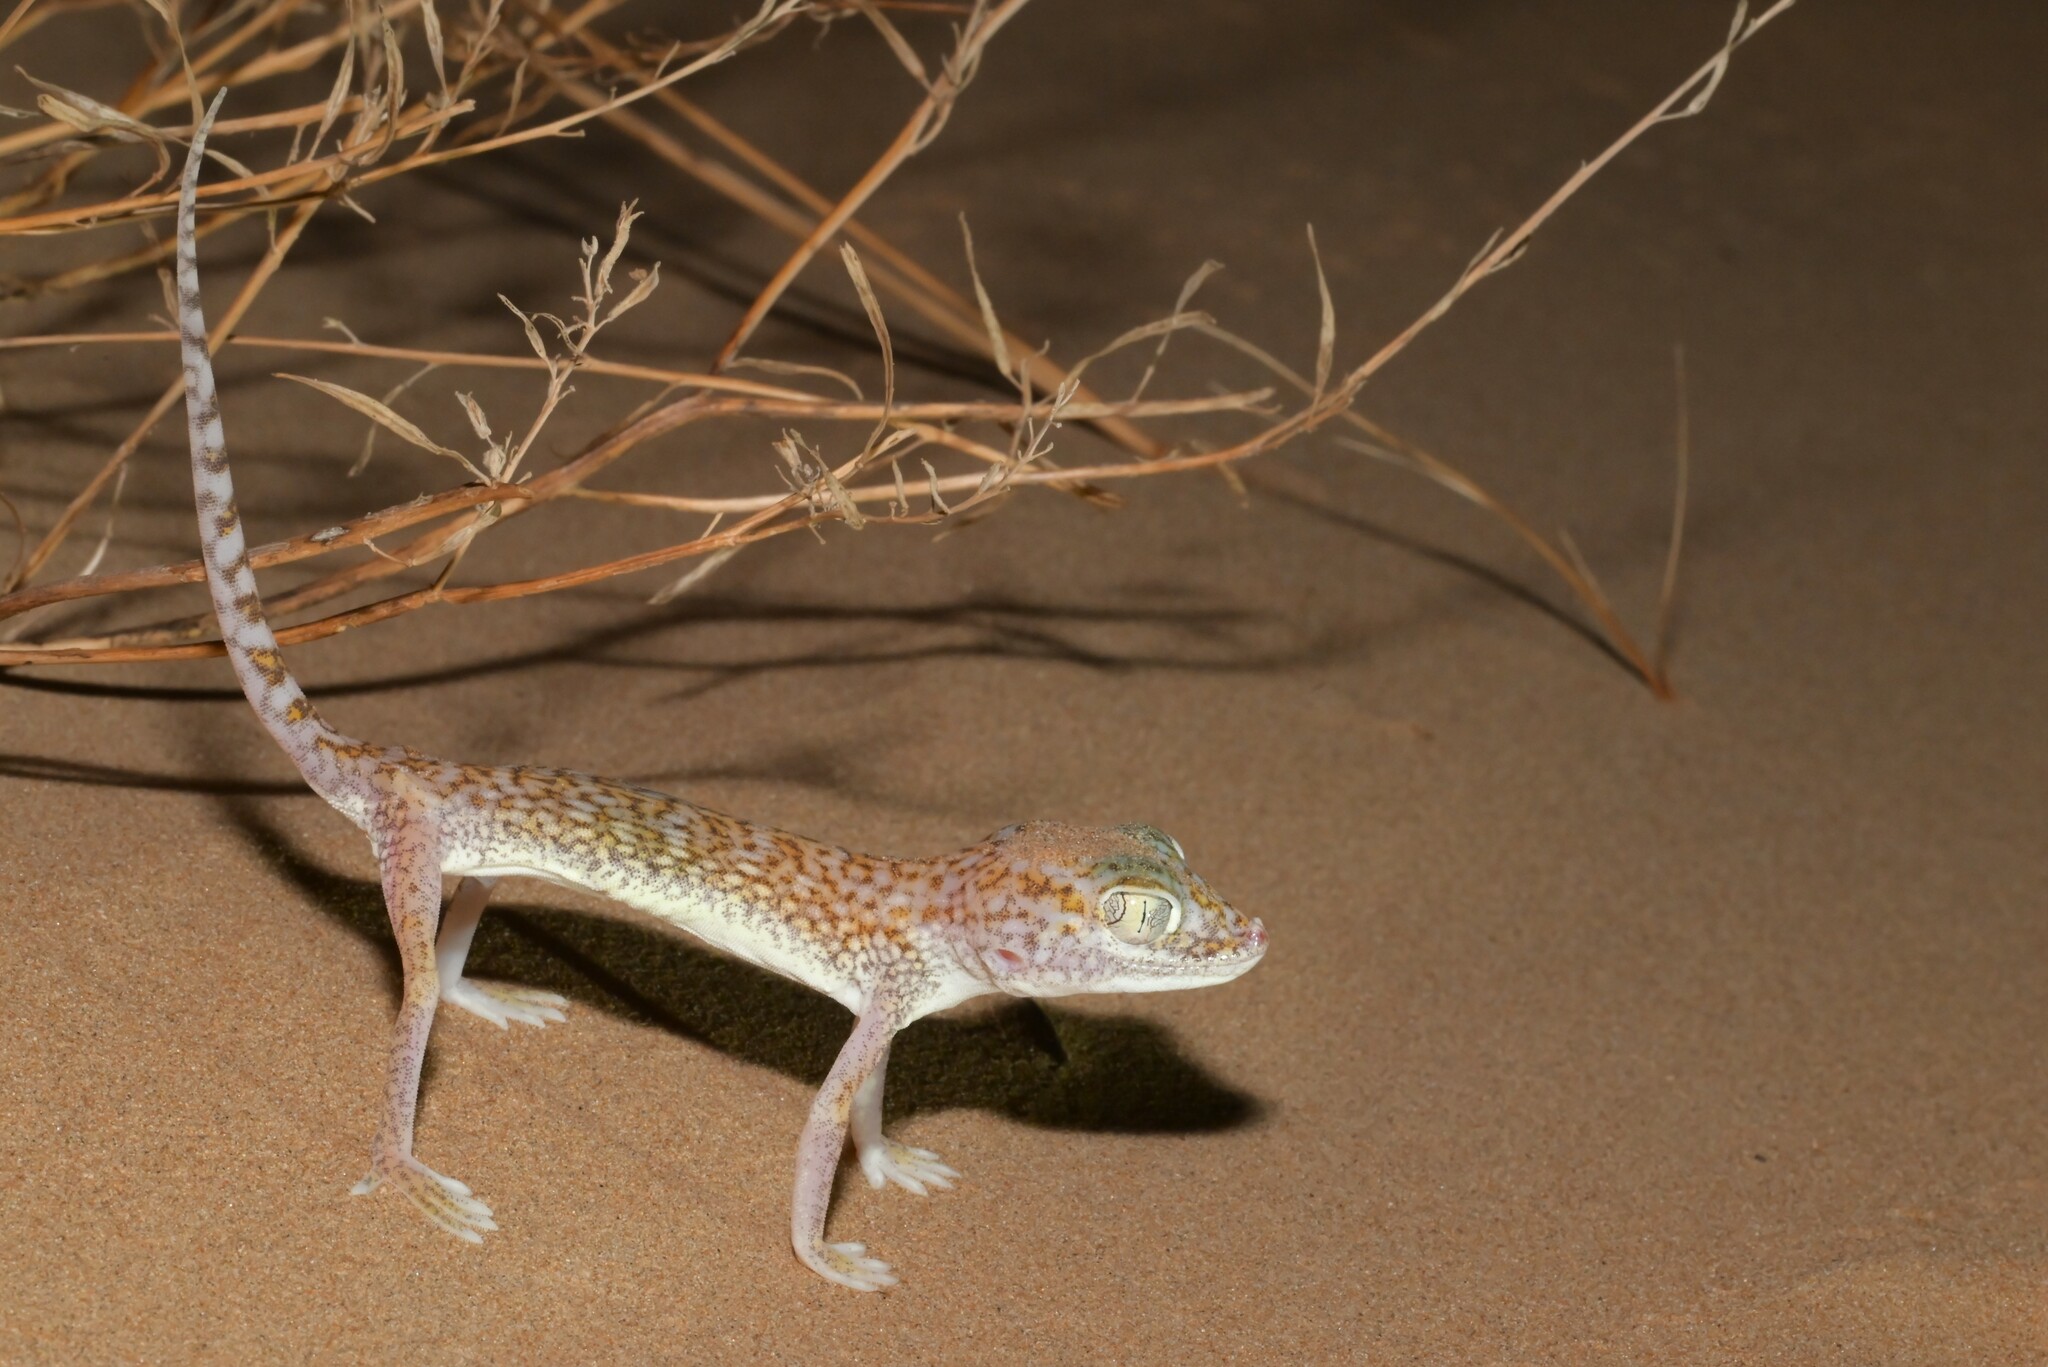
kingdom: Animalia
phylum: Chordata
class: Squamata
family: Gekkonidae
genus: Stenodactylus
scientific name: Stenodactylus doriae
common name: Dune sand gecko
